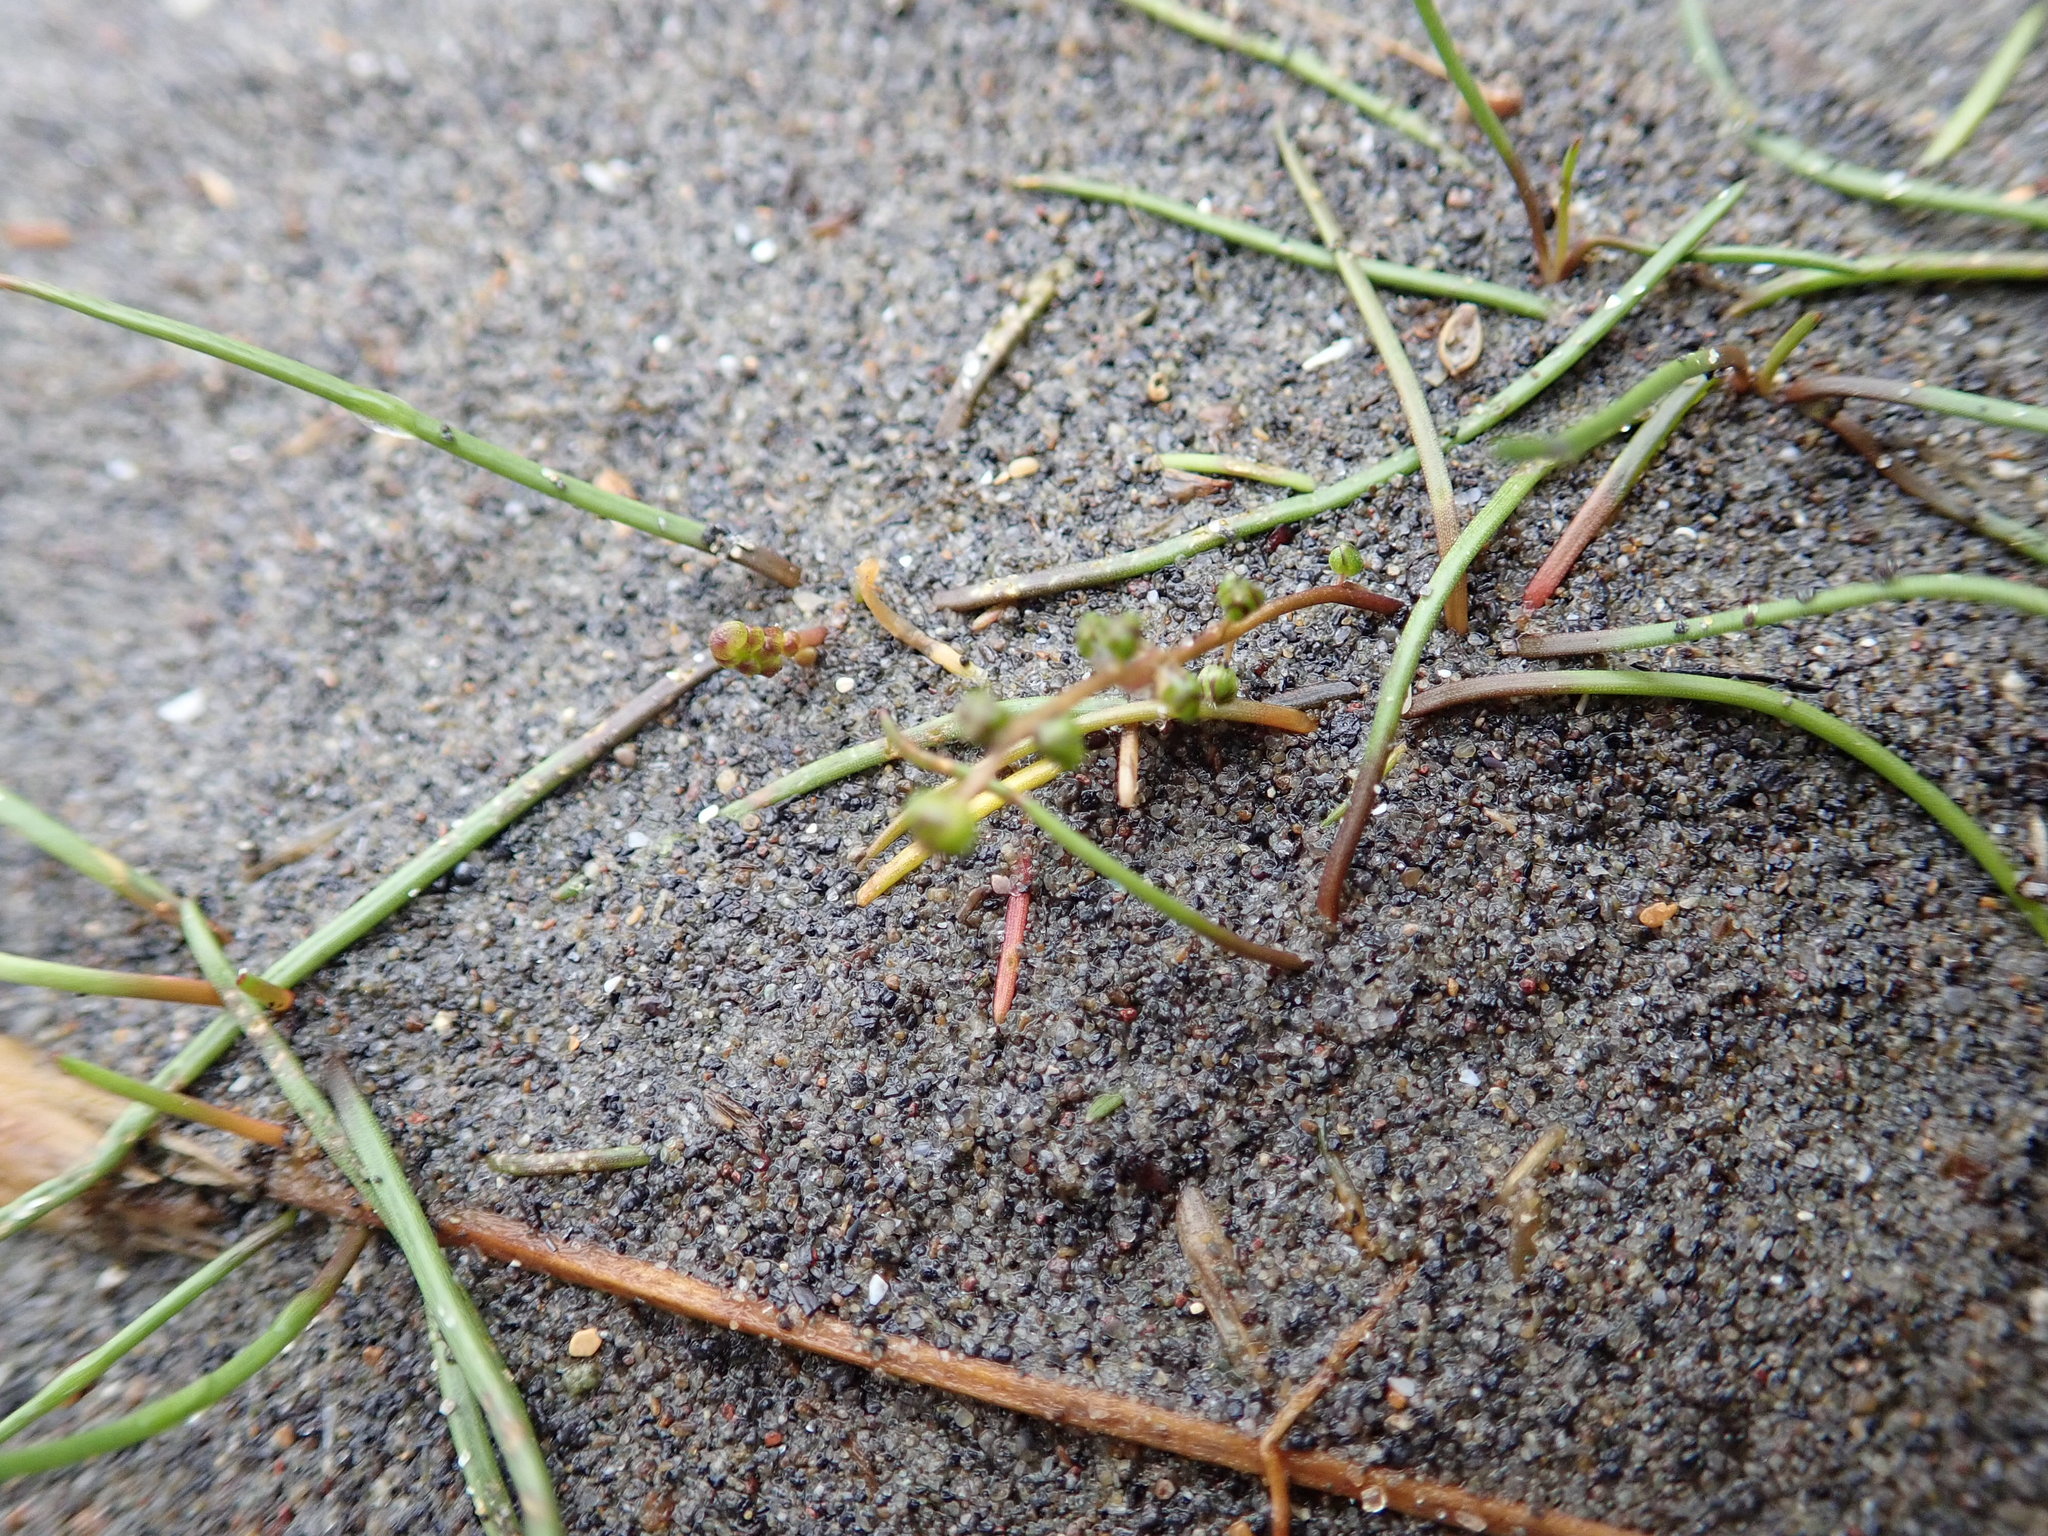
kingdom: Plantae
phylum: Tracheophyta
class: Liliopsida
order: Alismatales
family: Juncaginaceae
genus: Triglochin
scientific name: Triglochin striata
